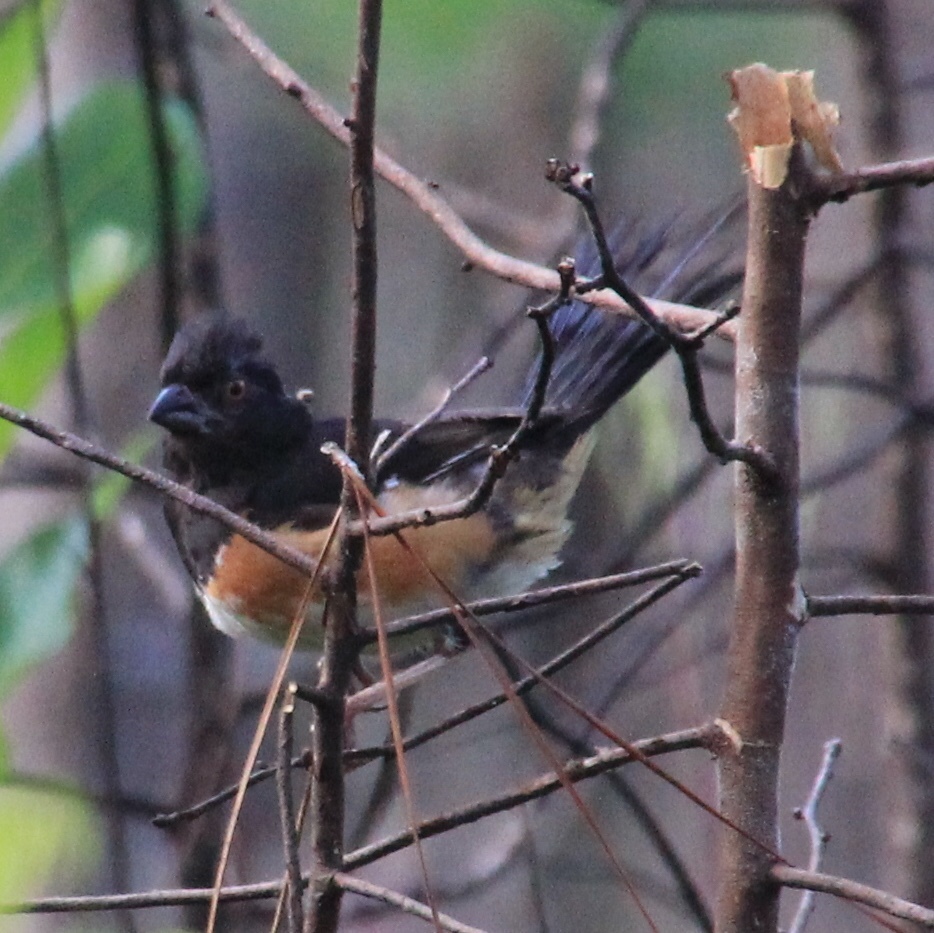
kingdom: Animalia
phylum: Chordata
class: Aves
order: Passeriformes
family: Passerellidae
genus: Pipilo
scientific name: Pipilo erythrophthalmus
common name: Eastern towhee
